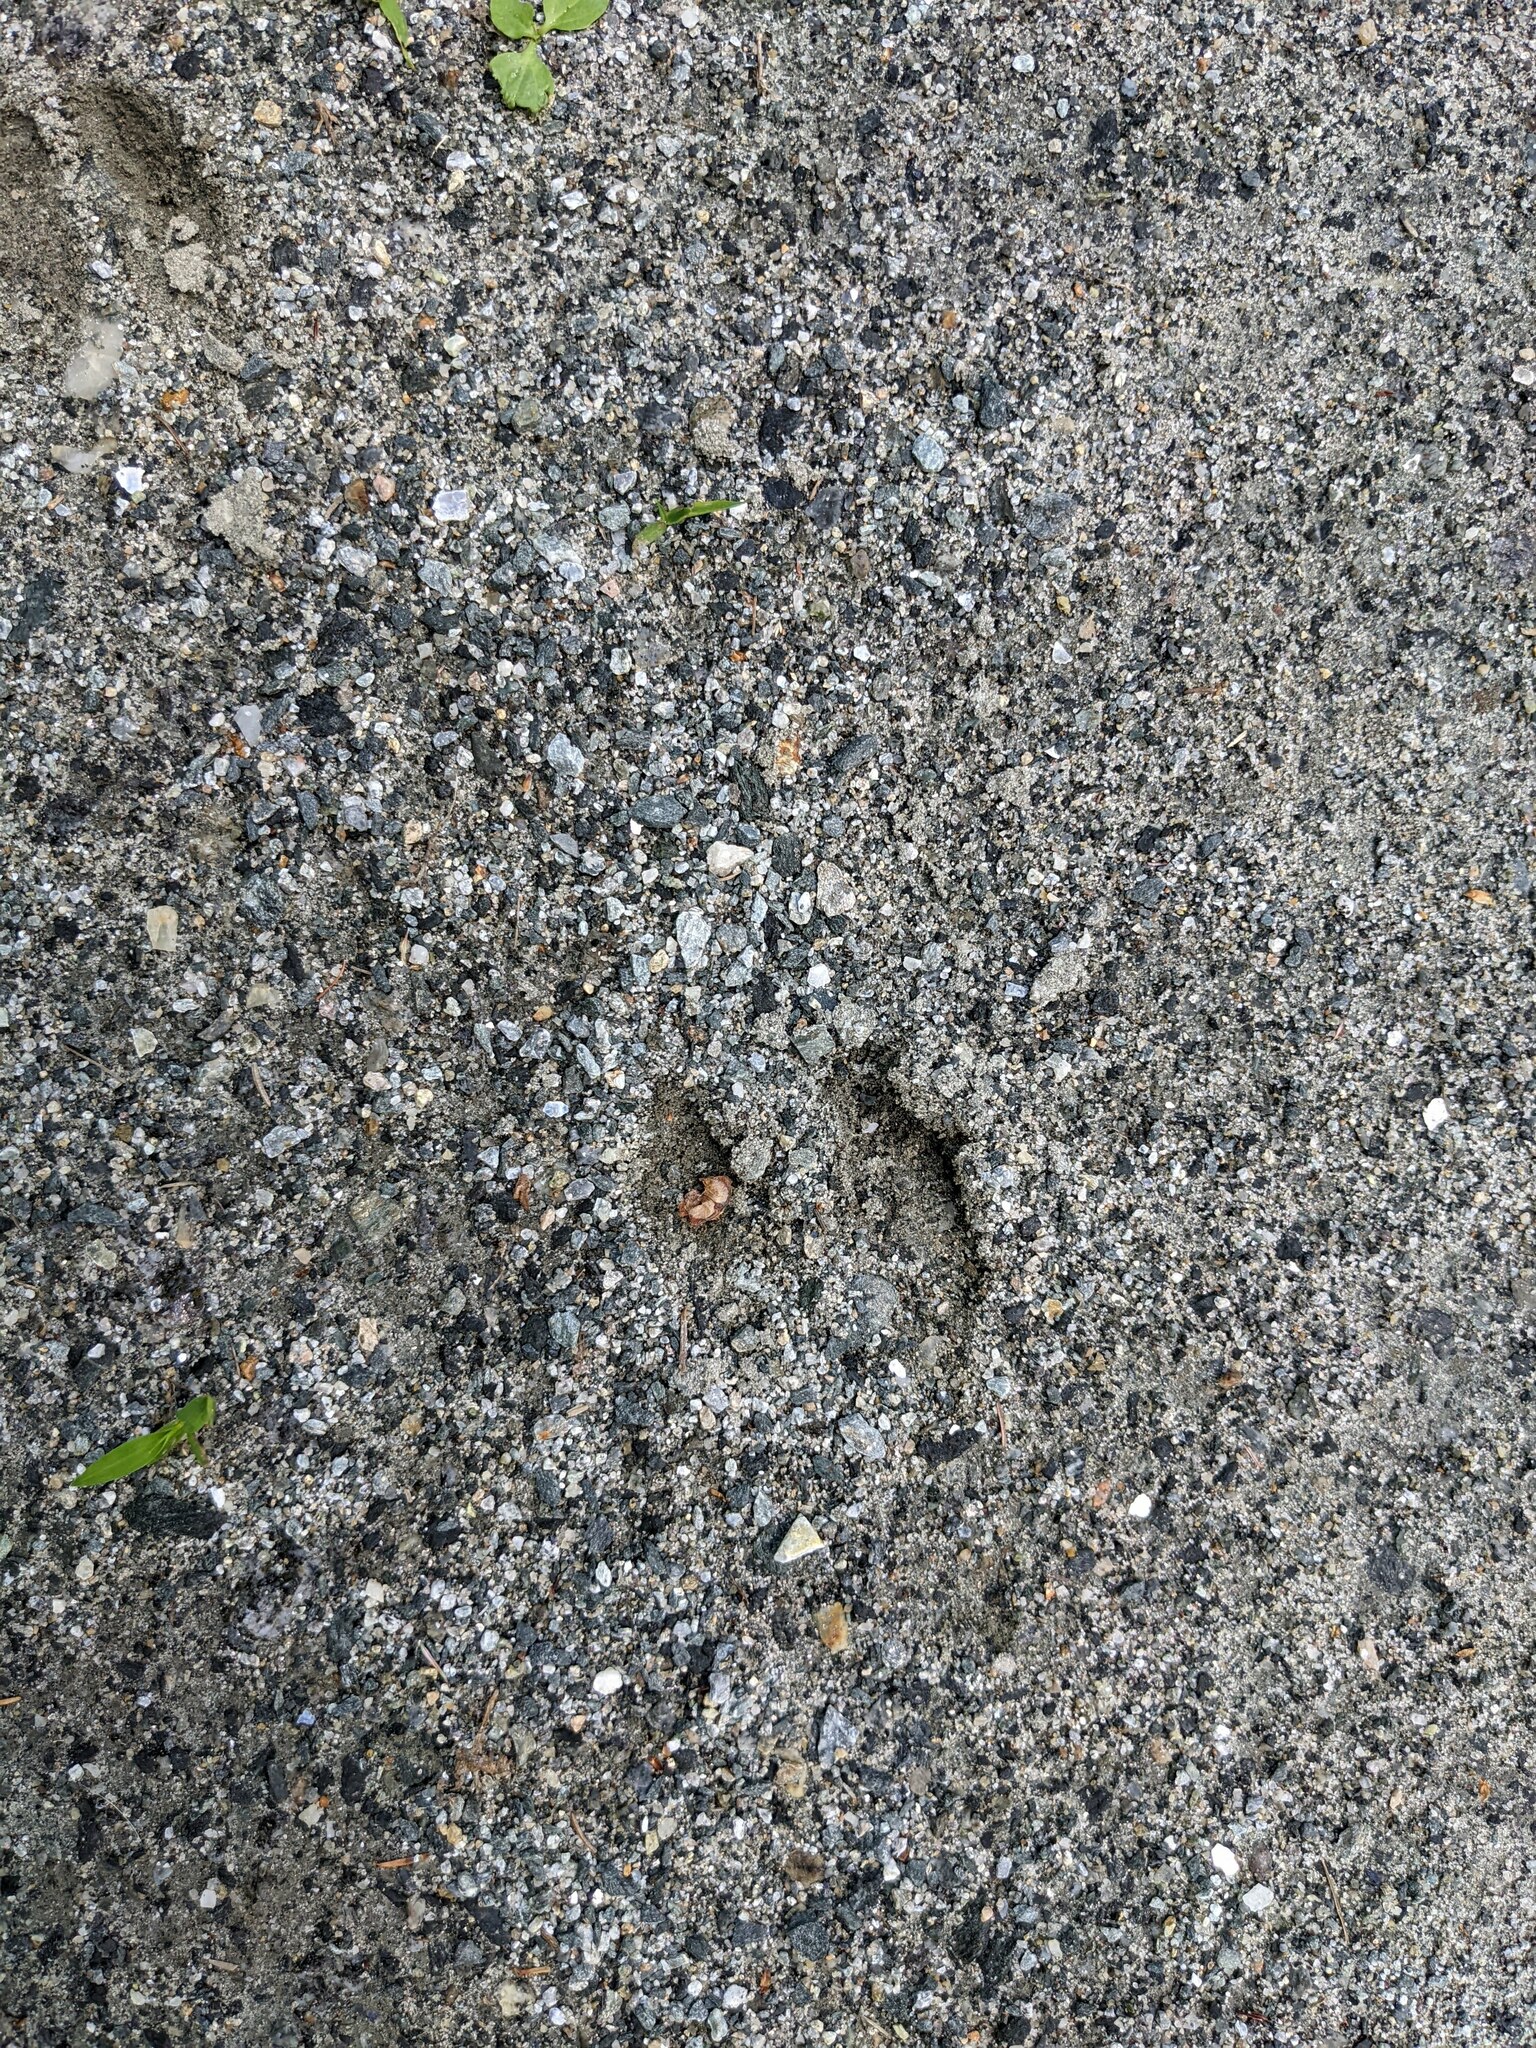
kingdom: Animalia
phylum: Chordata
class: Mammalia
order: Artiodactyla
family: Cervidae
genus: Odocoileus
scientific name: Odocoileus virginianus
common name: White-tailed deer
